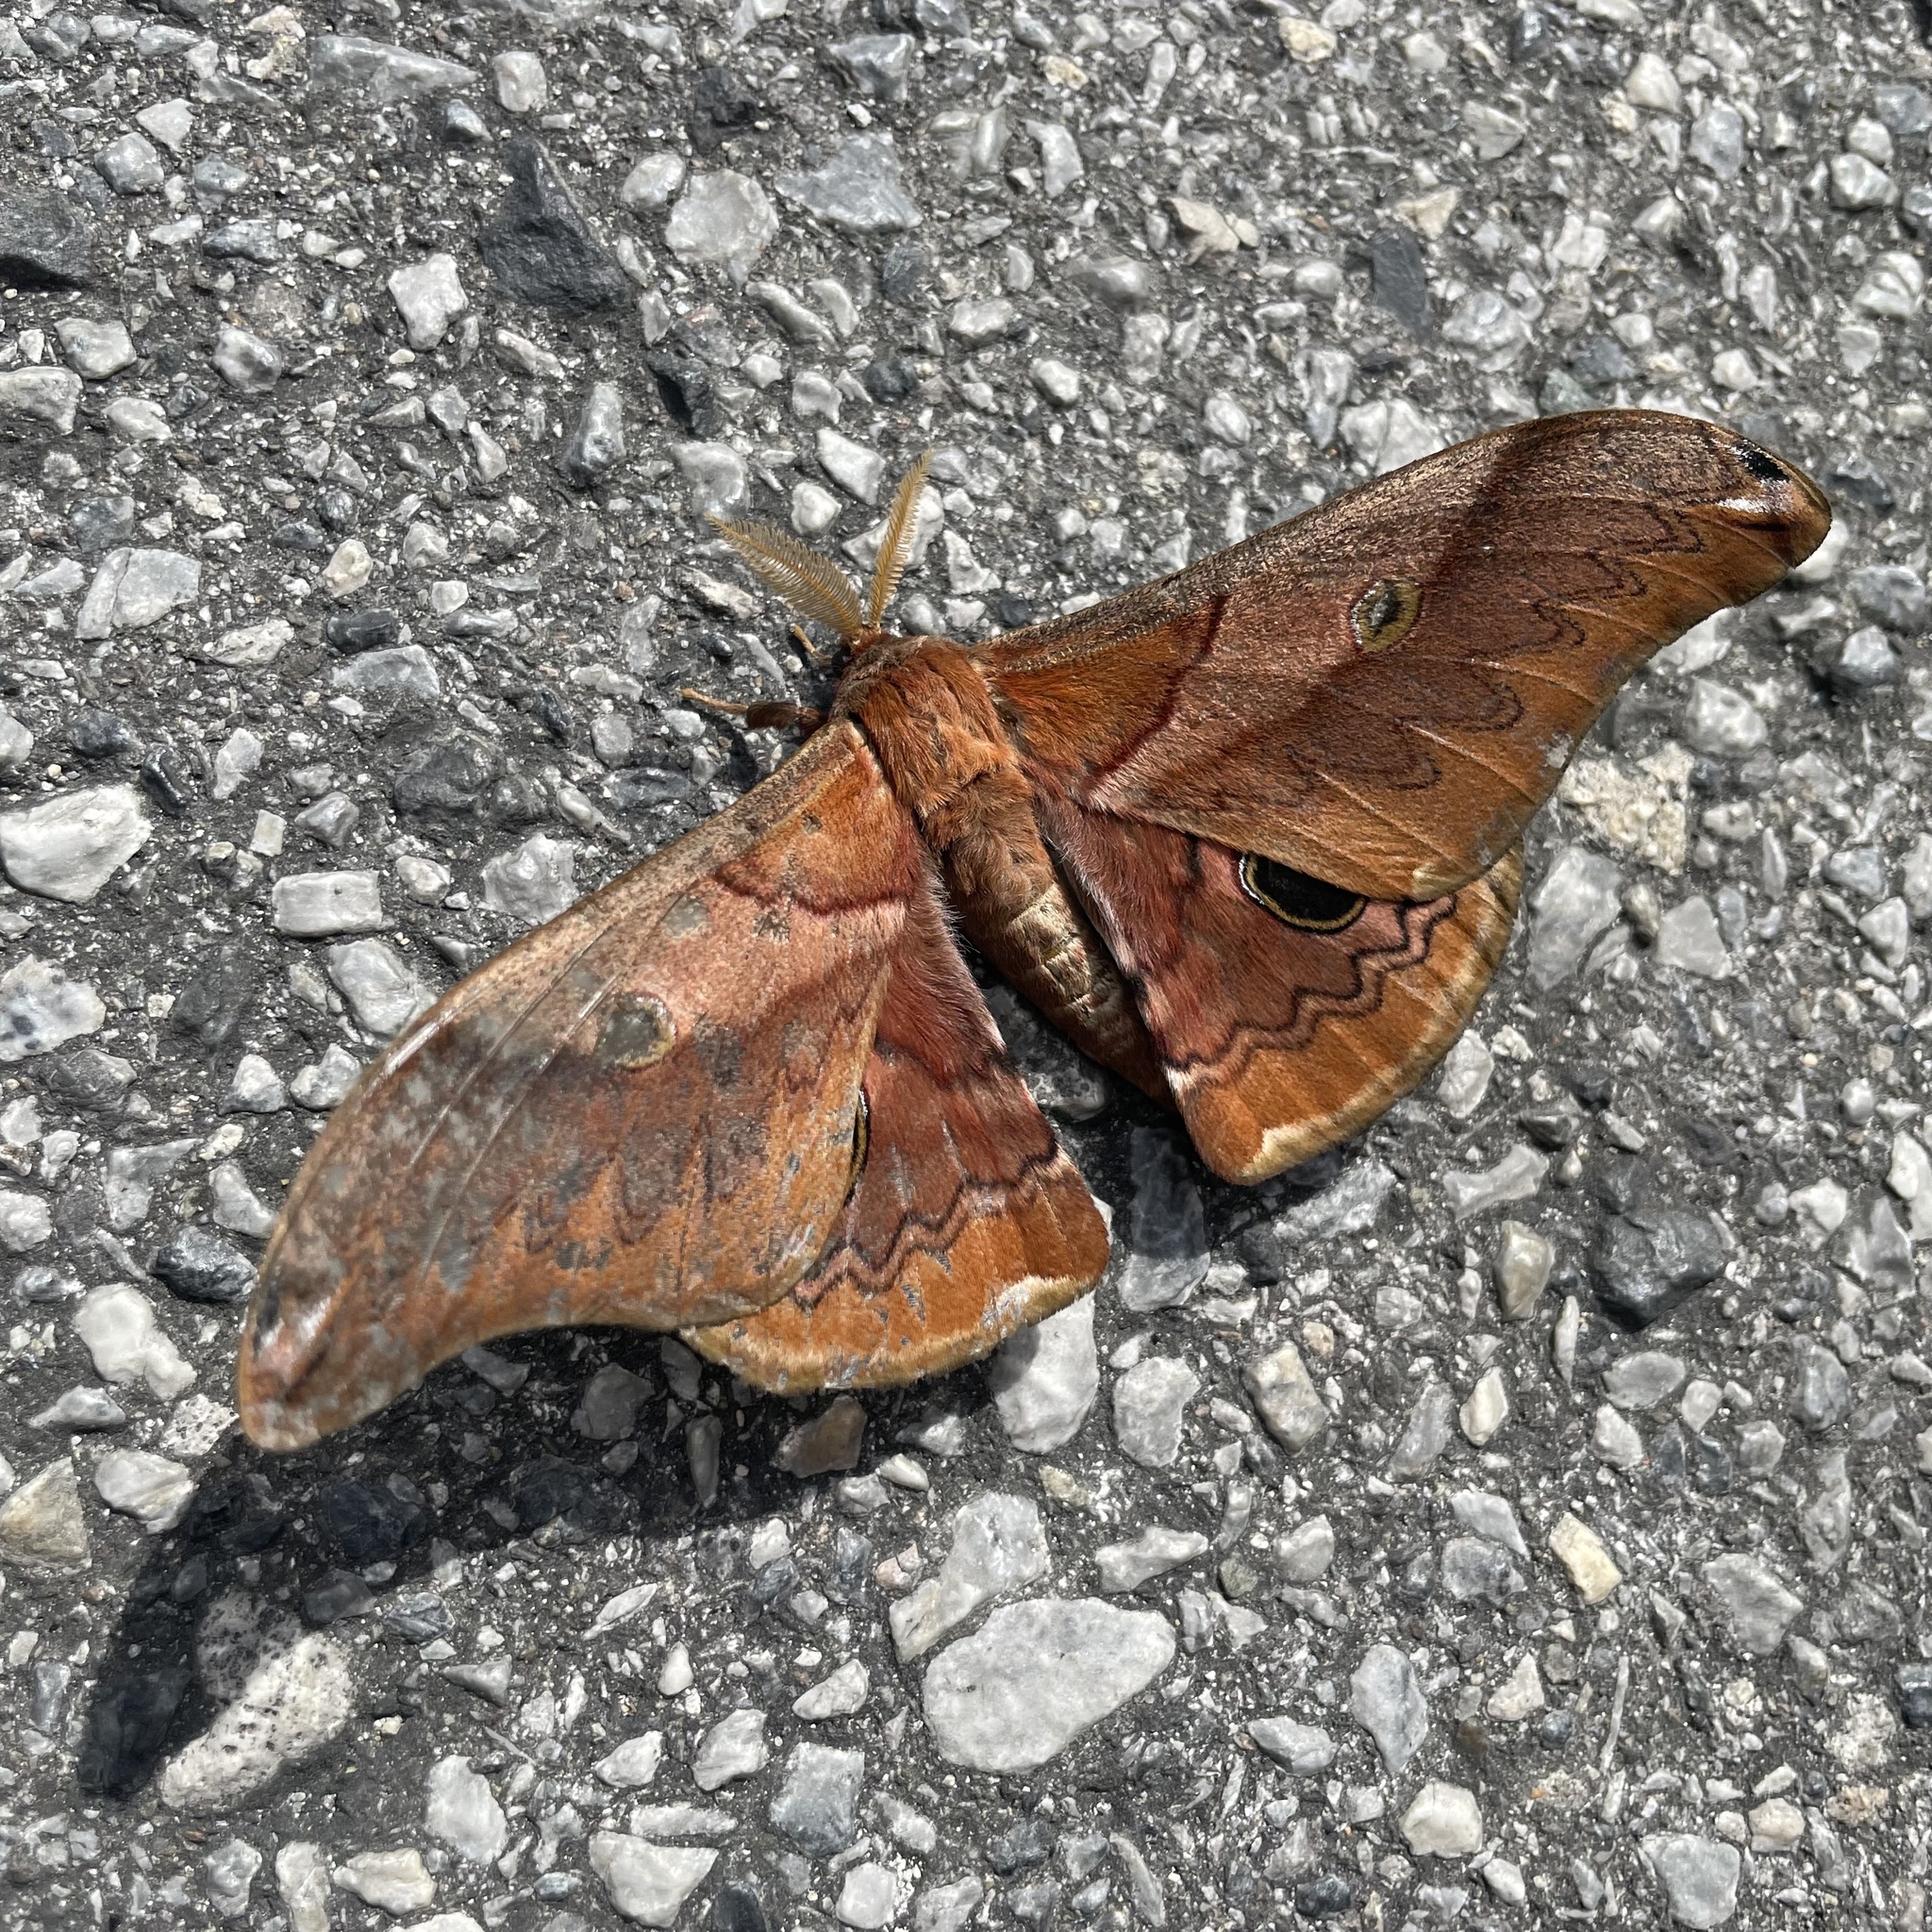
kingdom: Animalia
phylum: Arthropoda
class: Insecta
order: Lepidoptera
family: Saturniidae
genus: Saturnia
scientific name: Saturnia japonica
